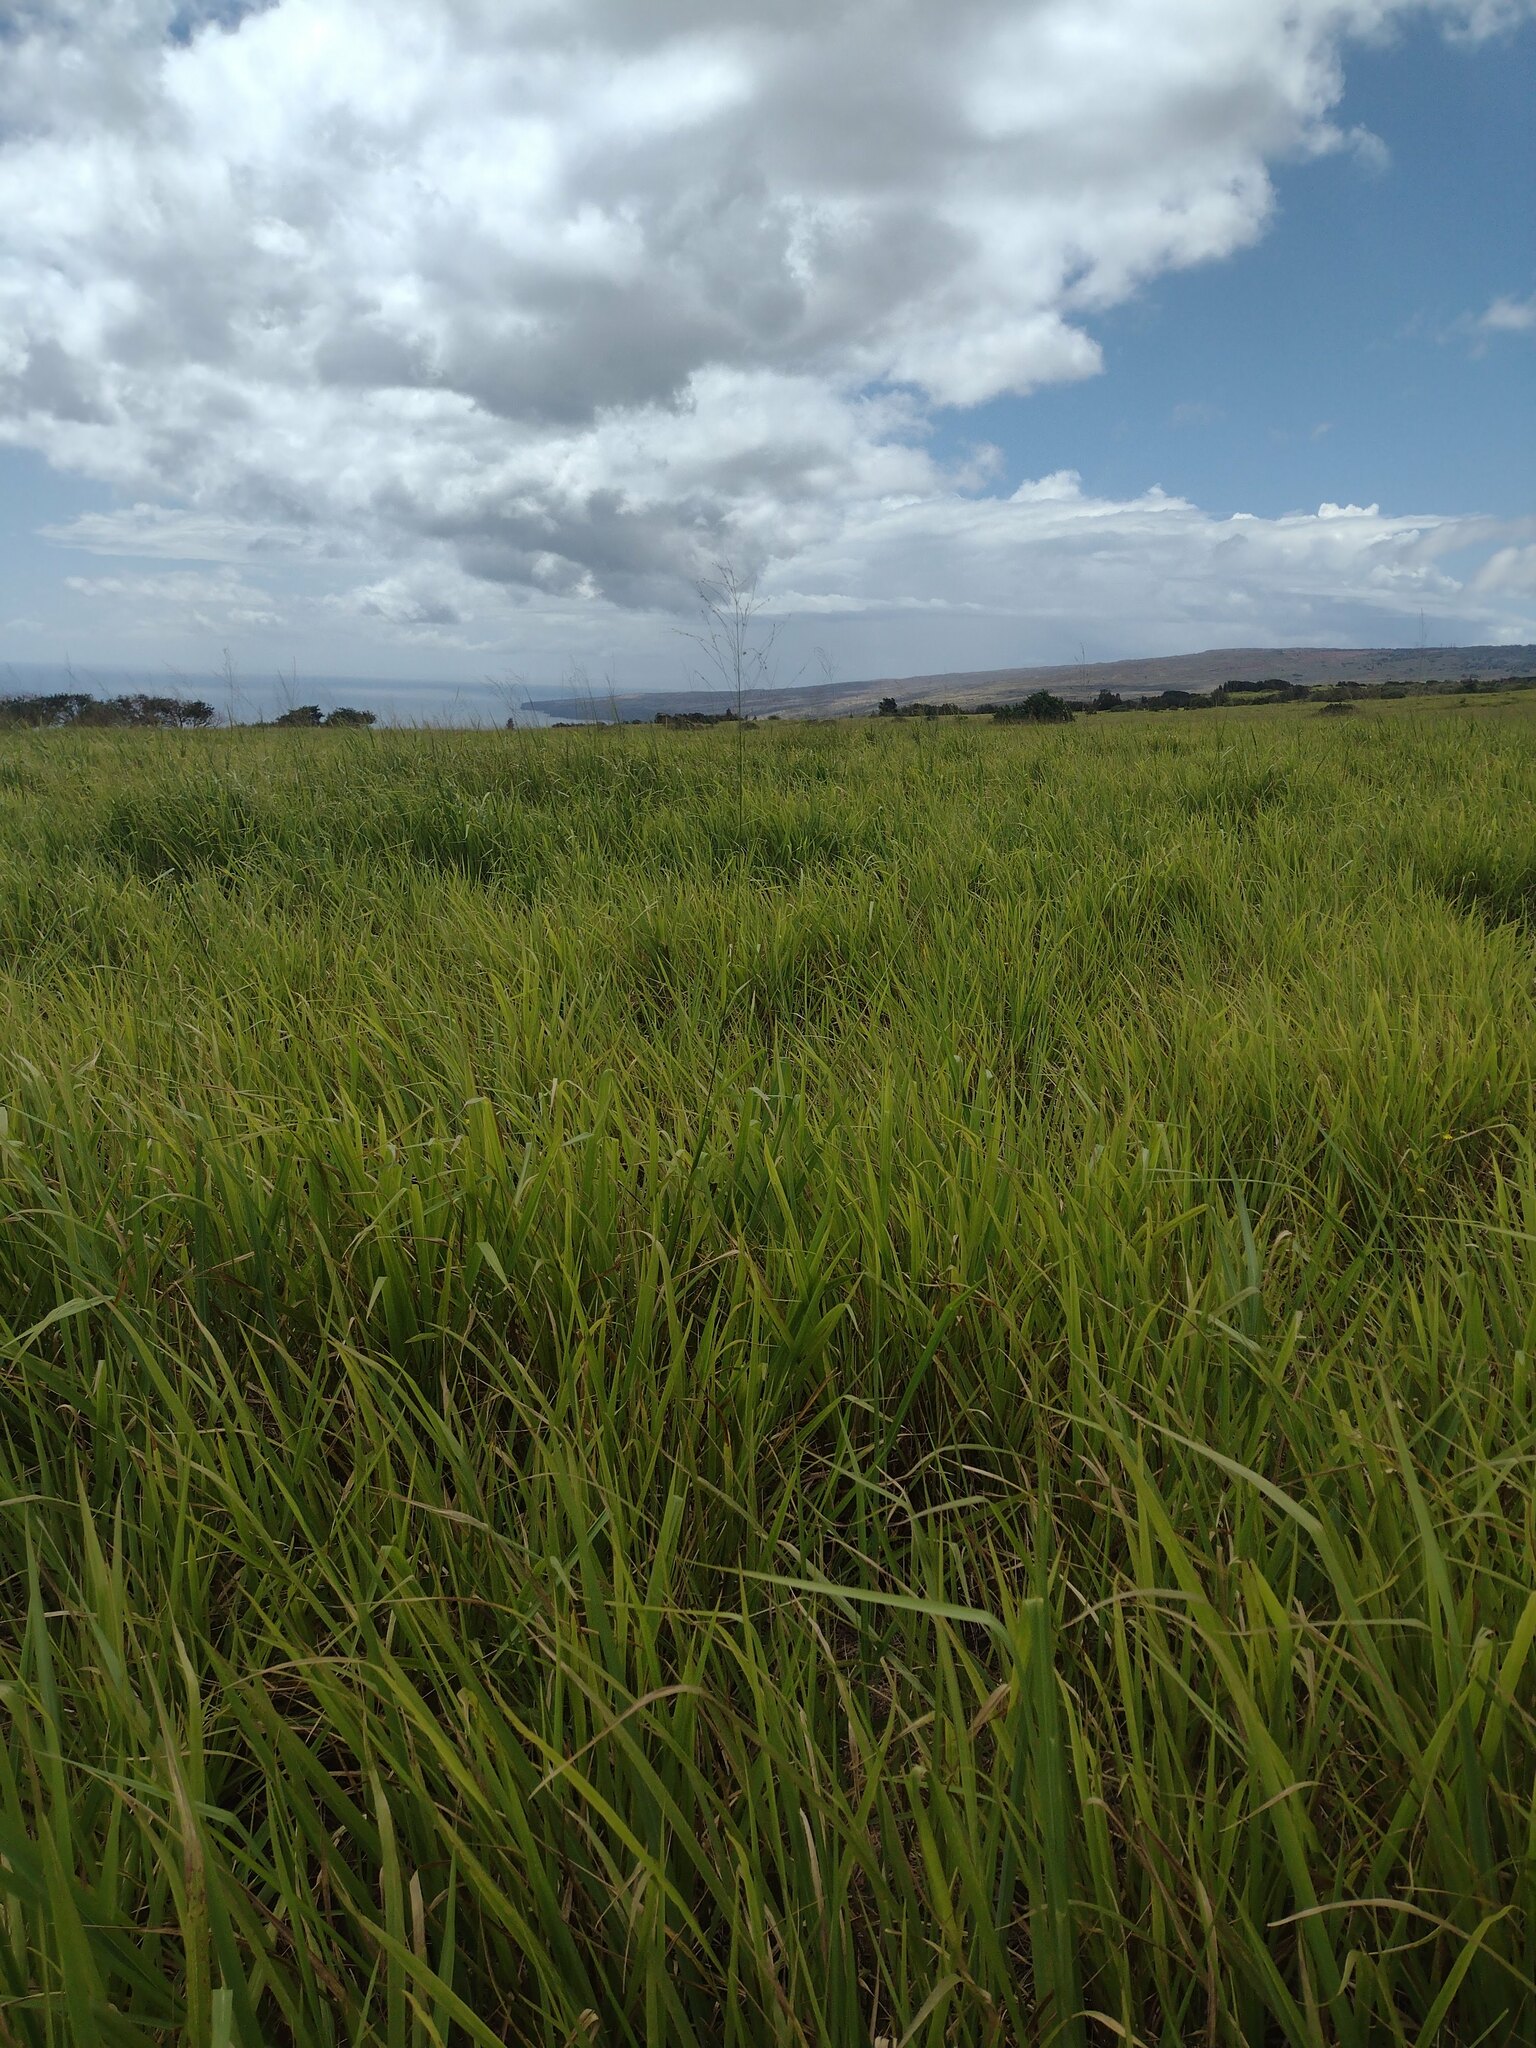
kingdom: Plantae
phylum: Tracheophyta
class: Liliopsida
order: Poales
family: Poaceae
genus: Megathyrsus
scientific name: Megathyrsus maximus
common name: Guineagrass
